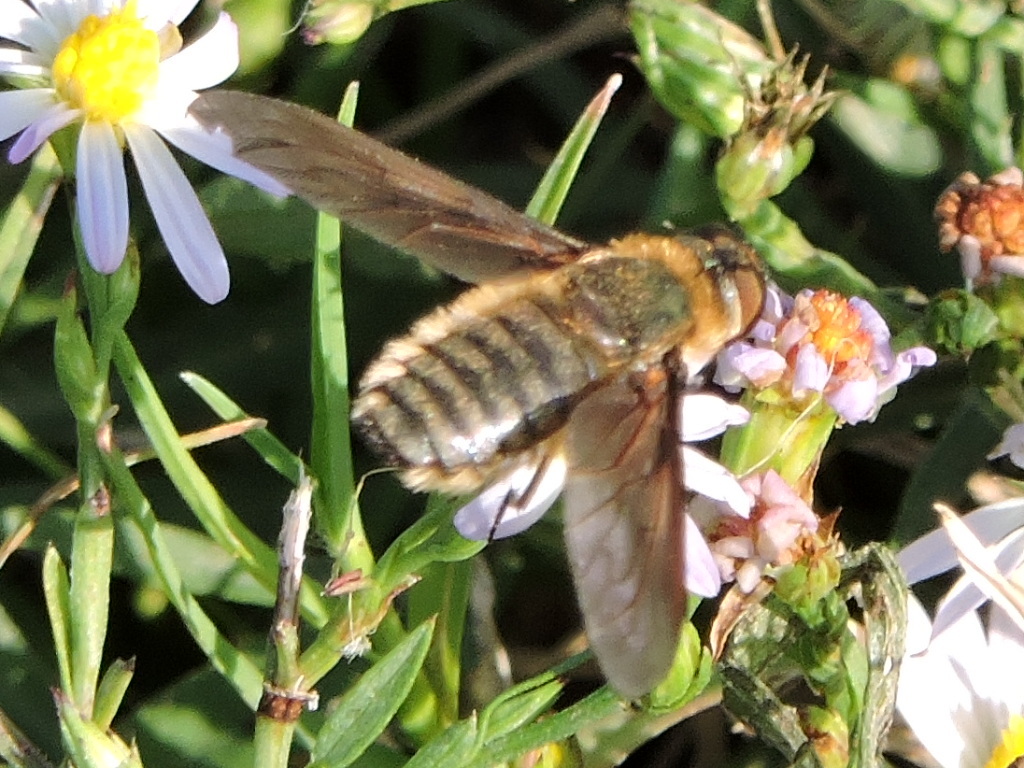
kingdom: Animalia
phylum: Arthropoda
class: Insecta
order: Diptera
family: Bombyliidae
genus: Poecilanthrax
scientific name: Poecilanthrax lucifer
